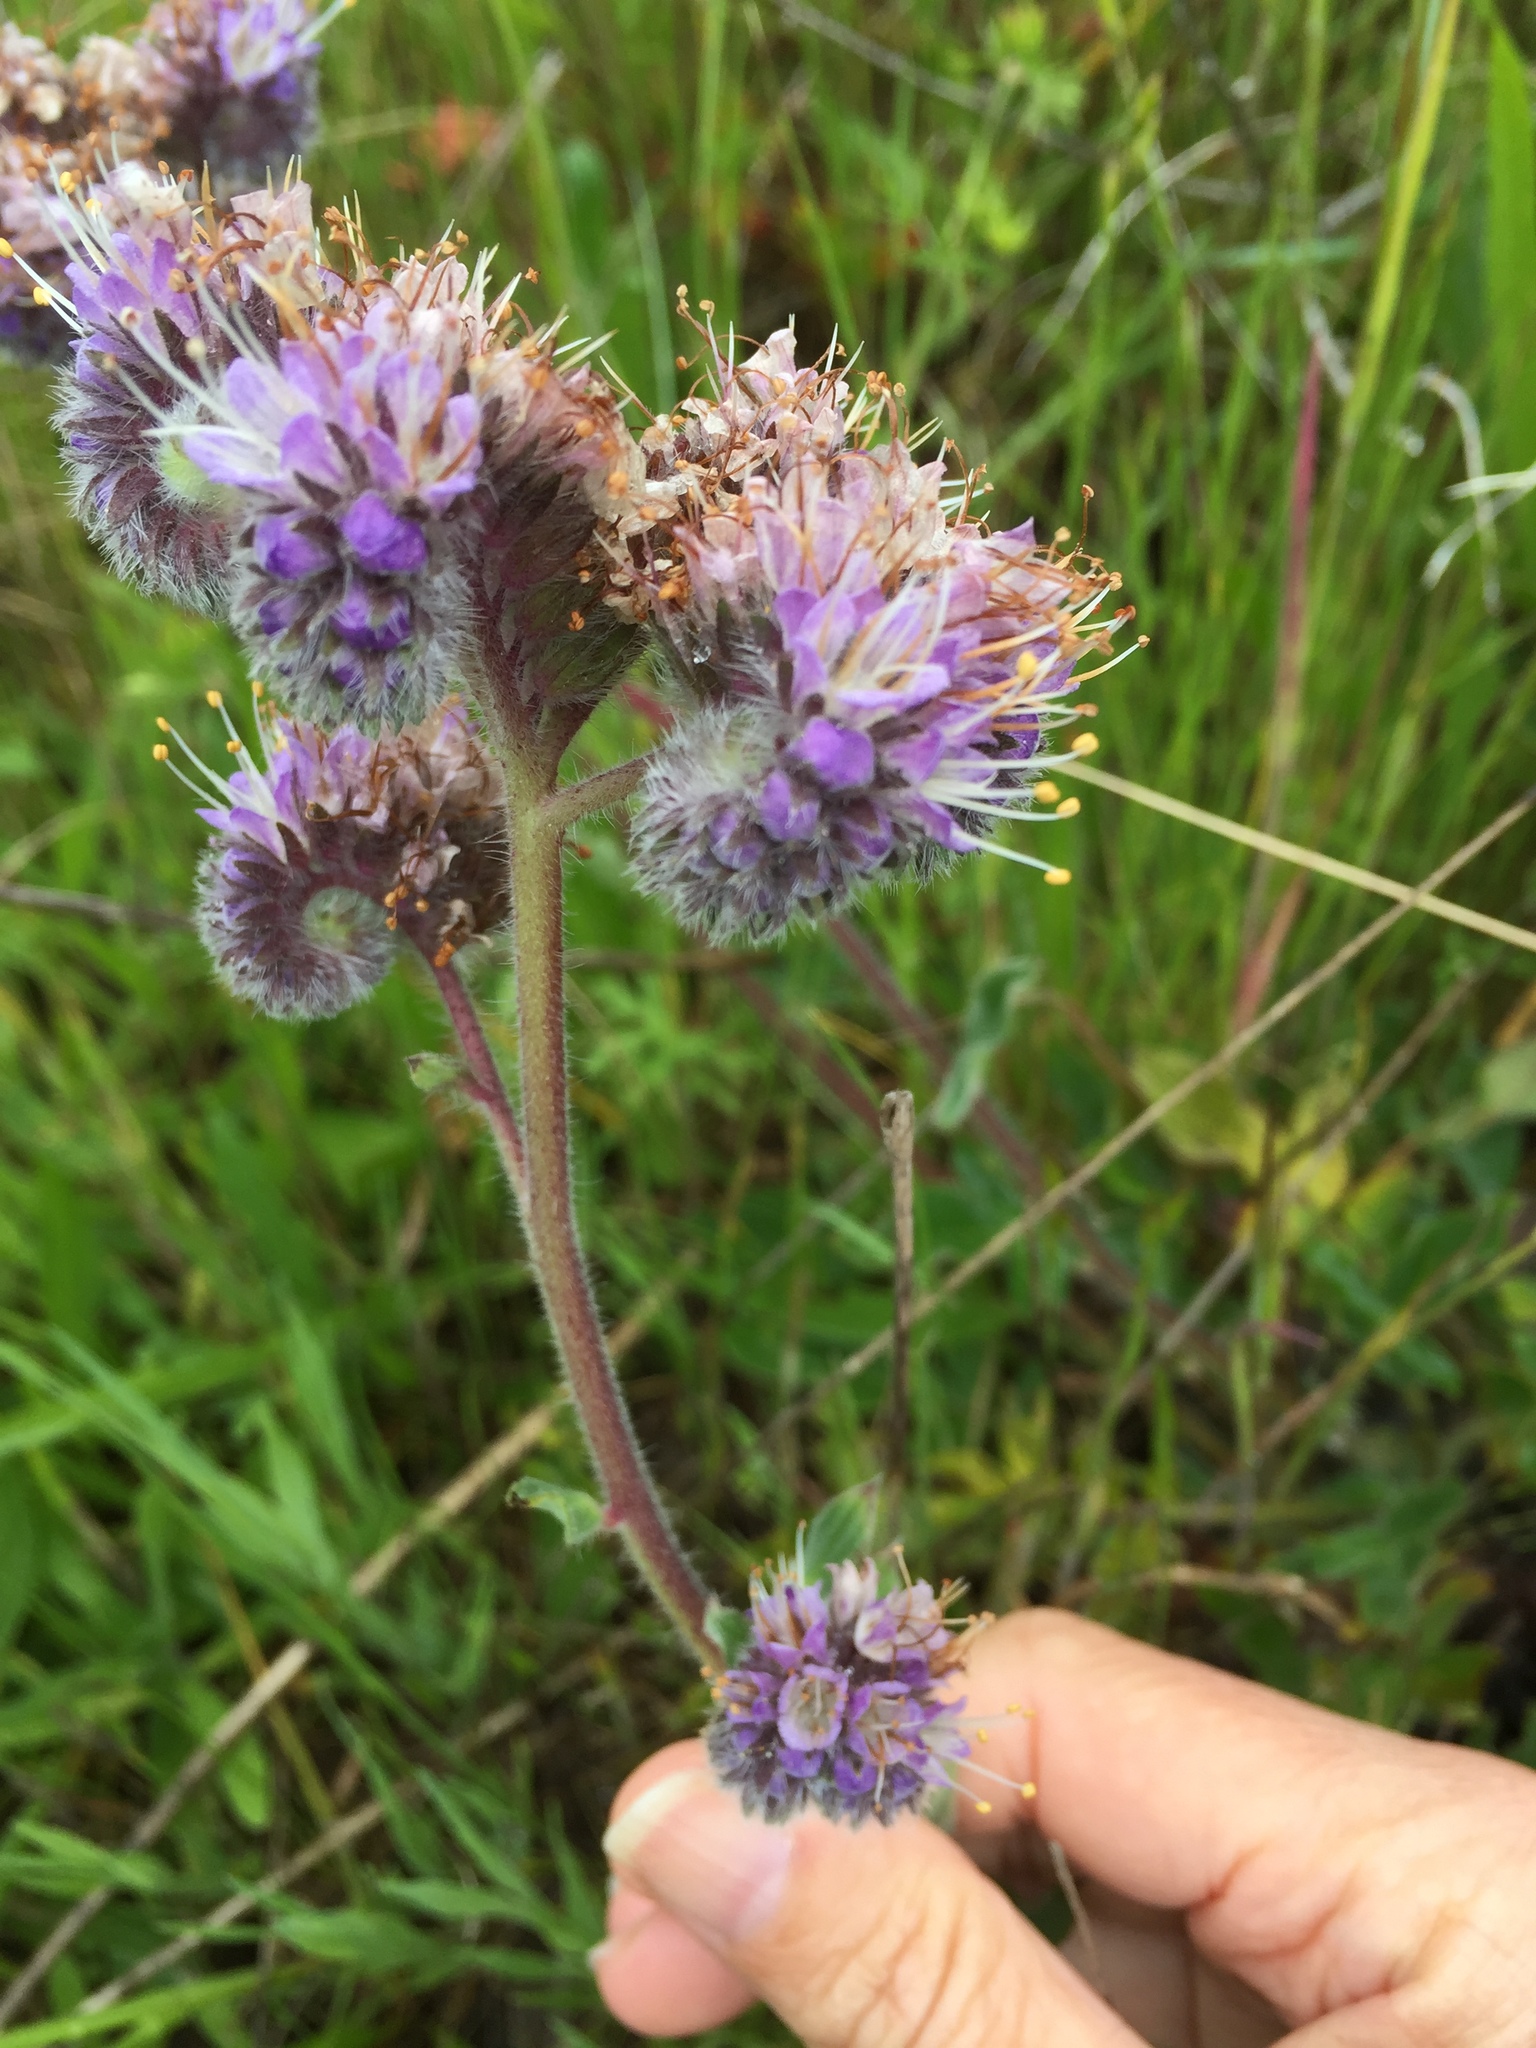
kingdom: Plantae
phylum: Tracheophyta
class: Magnoliopsida
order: Boraginales
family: Hydrophyllaceae
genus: Phacelia
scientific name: Phacelia californica
